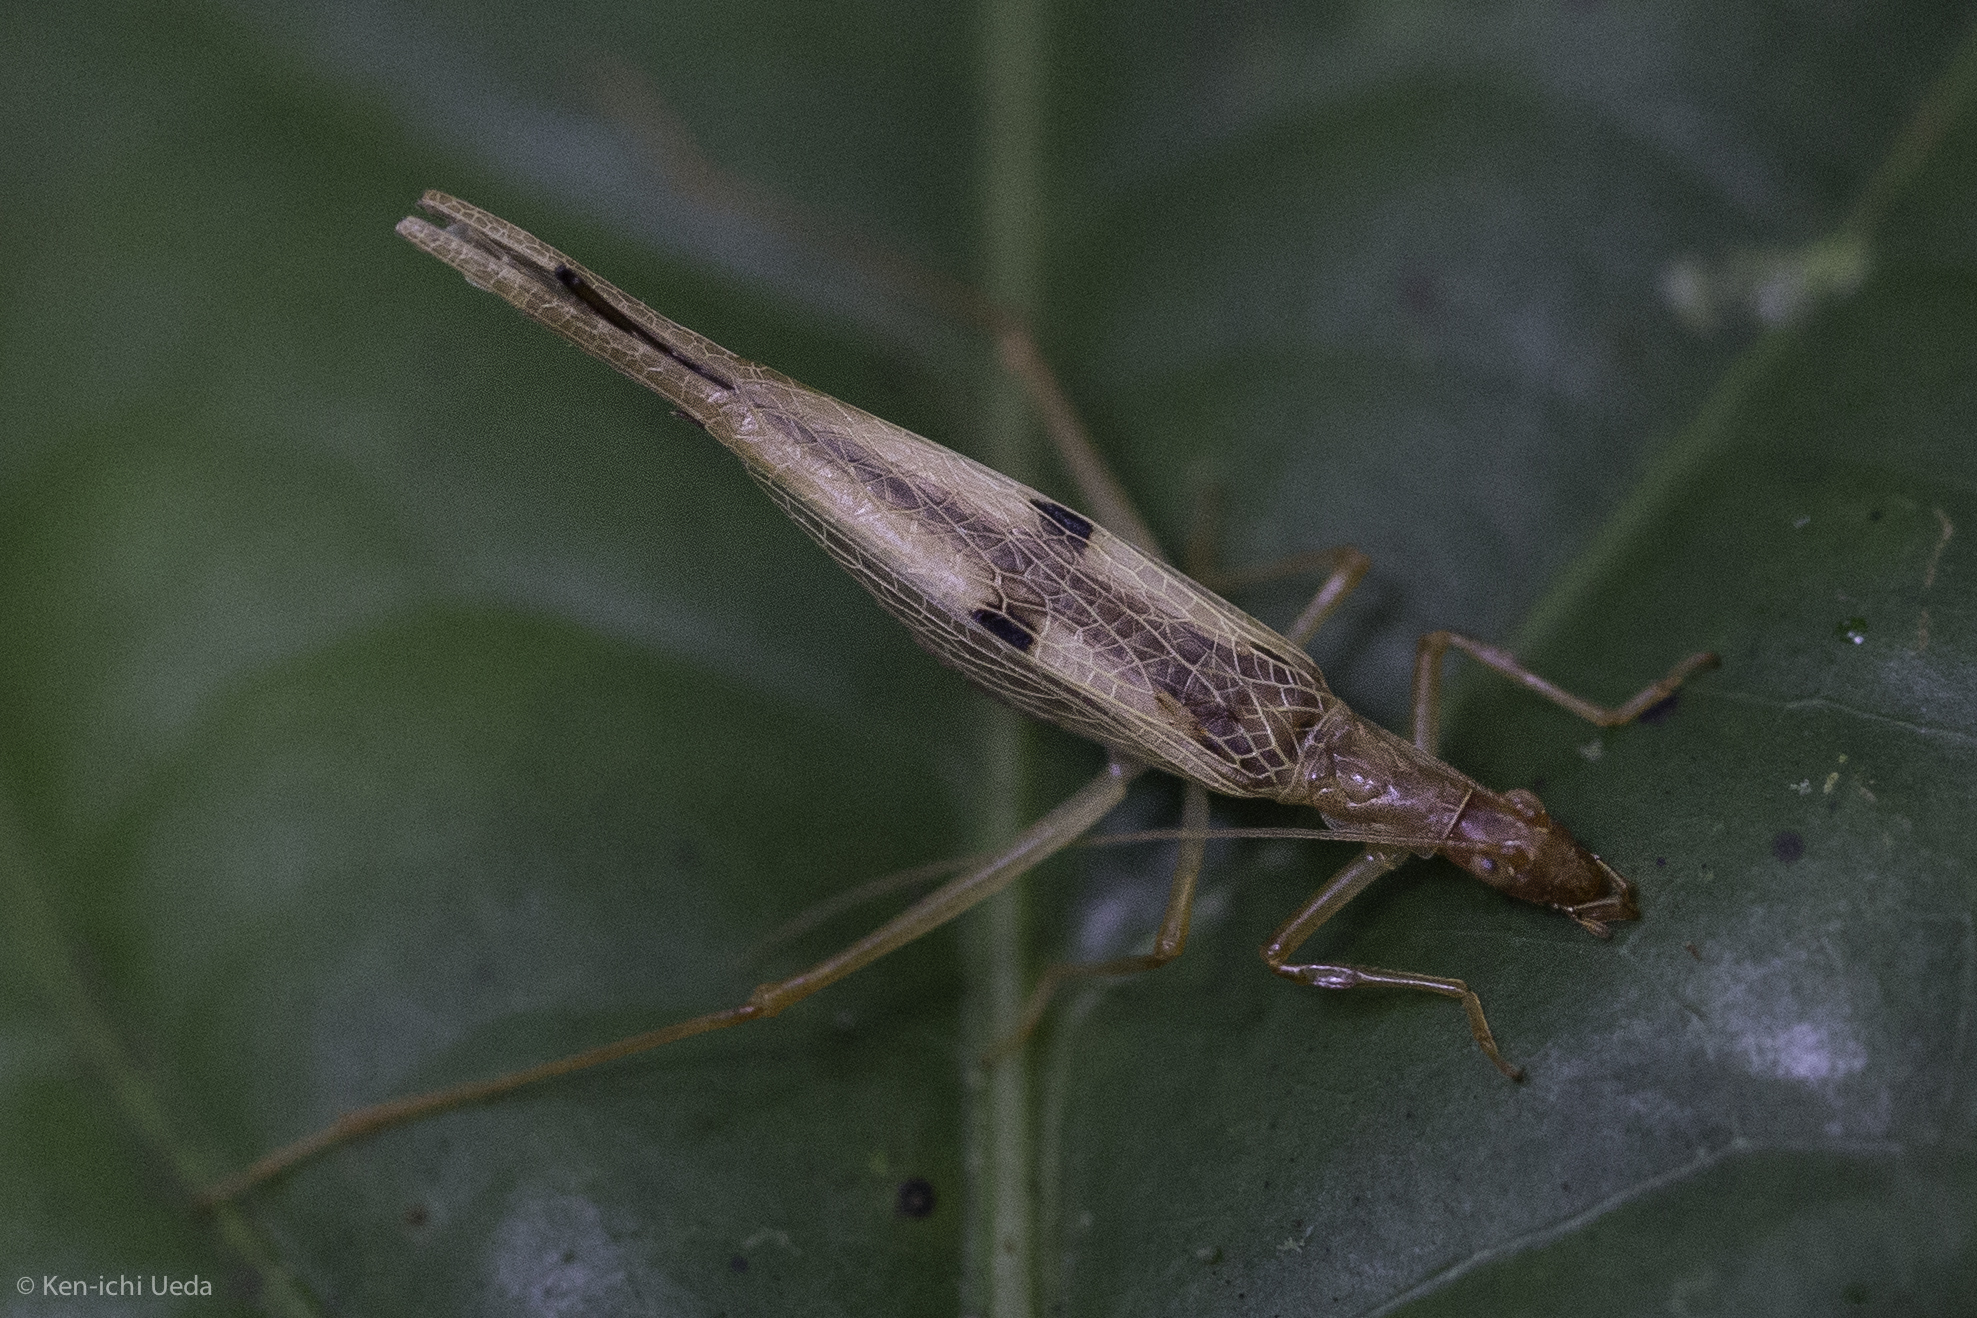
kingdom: Animalia
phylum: Arthropoda
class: Insecta
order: Orthoptera
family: Gryllidae
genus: Neoxabea
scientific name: Neoxabea cerrojesusensis
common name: Nicaragua tree cricket
